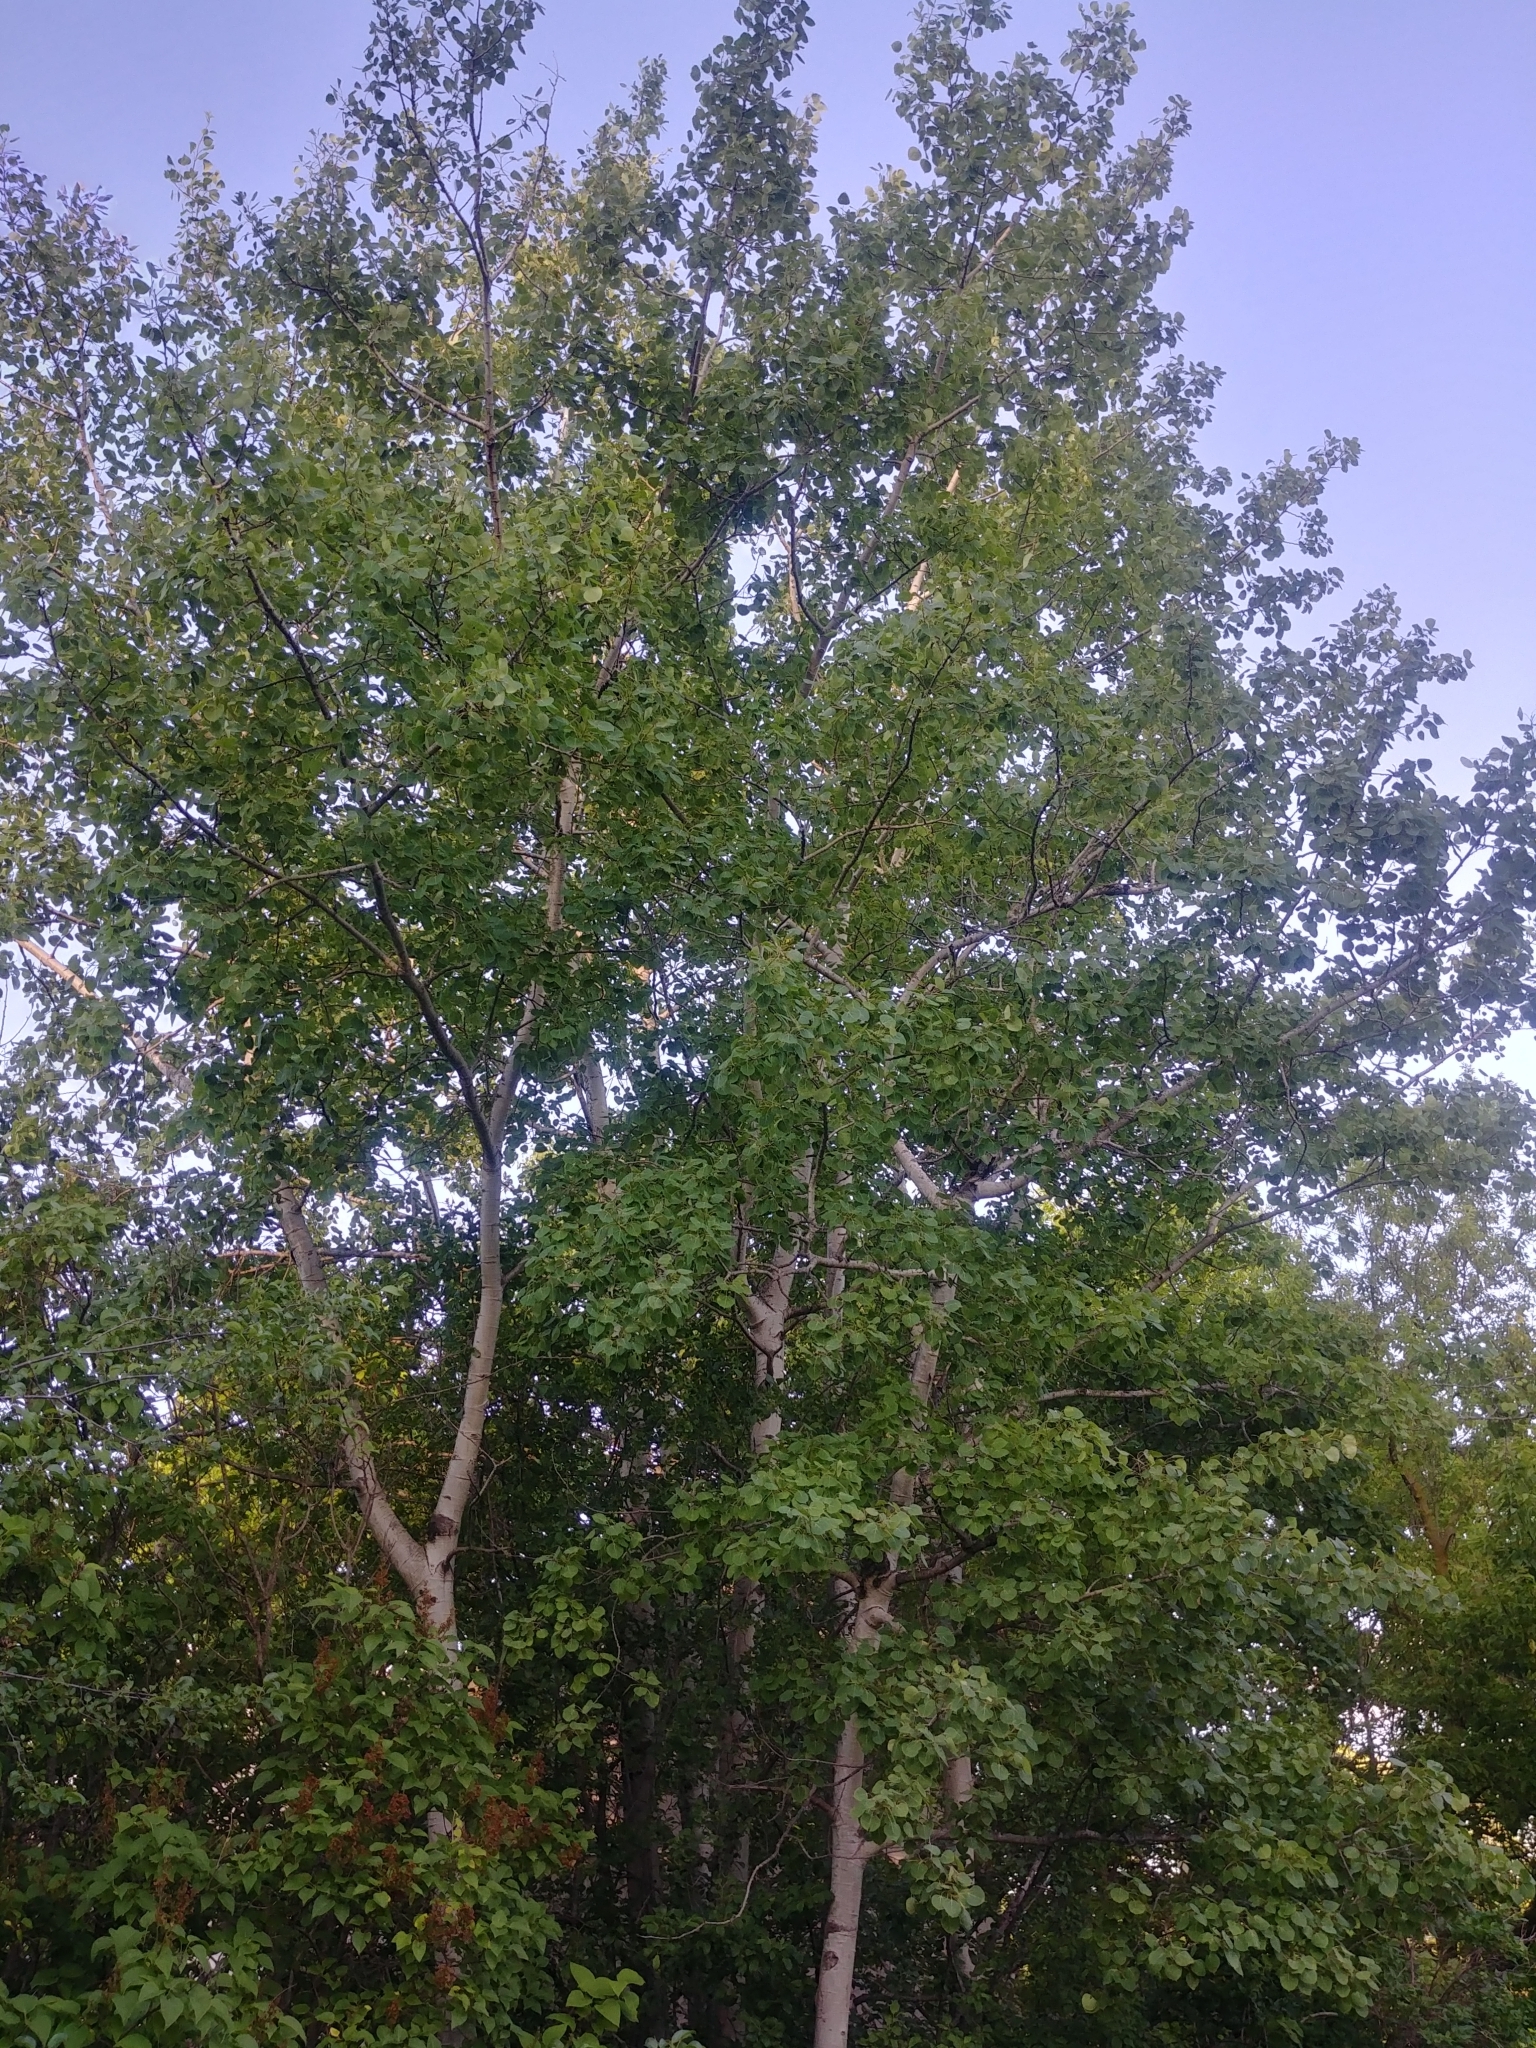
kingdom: Plantae
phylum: Tracheophyta
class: Magnoliopsida
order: Malpighiales
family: Salicaceae
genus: Populus
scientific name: Populus tremuloides
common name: Quaking aspen
